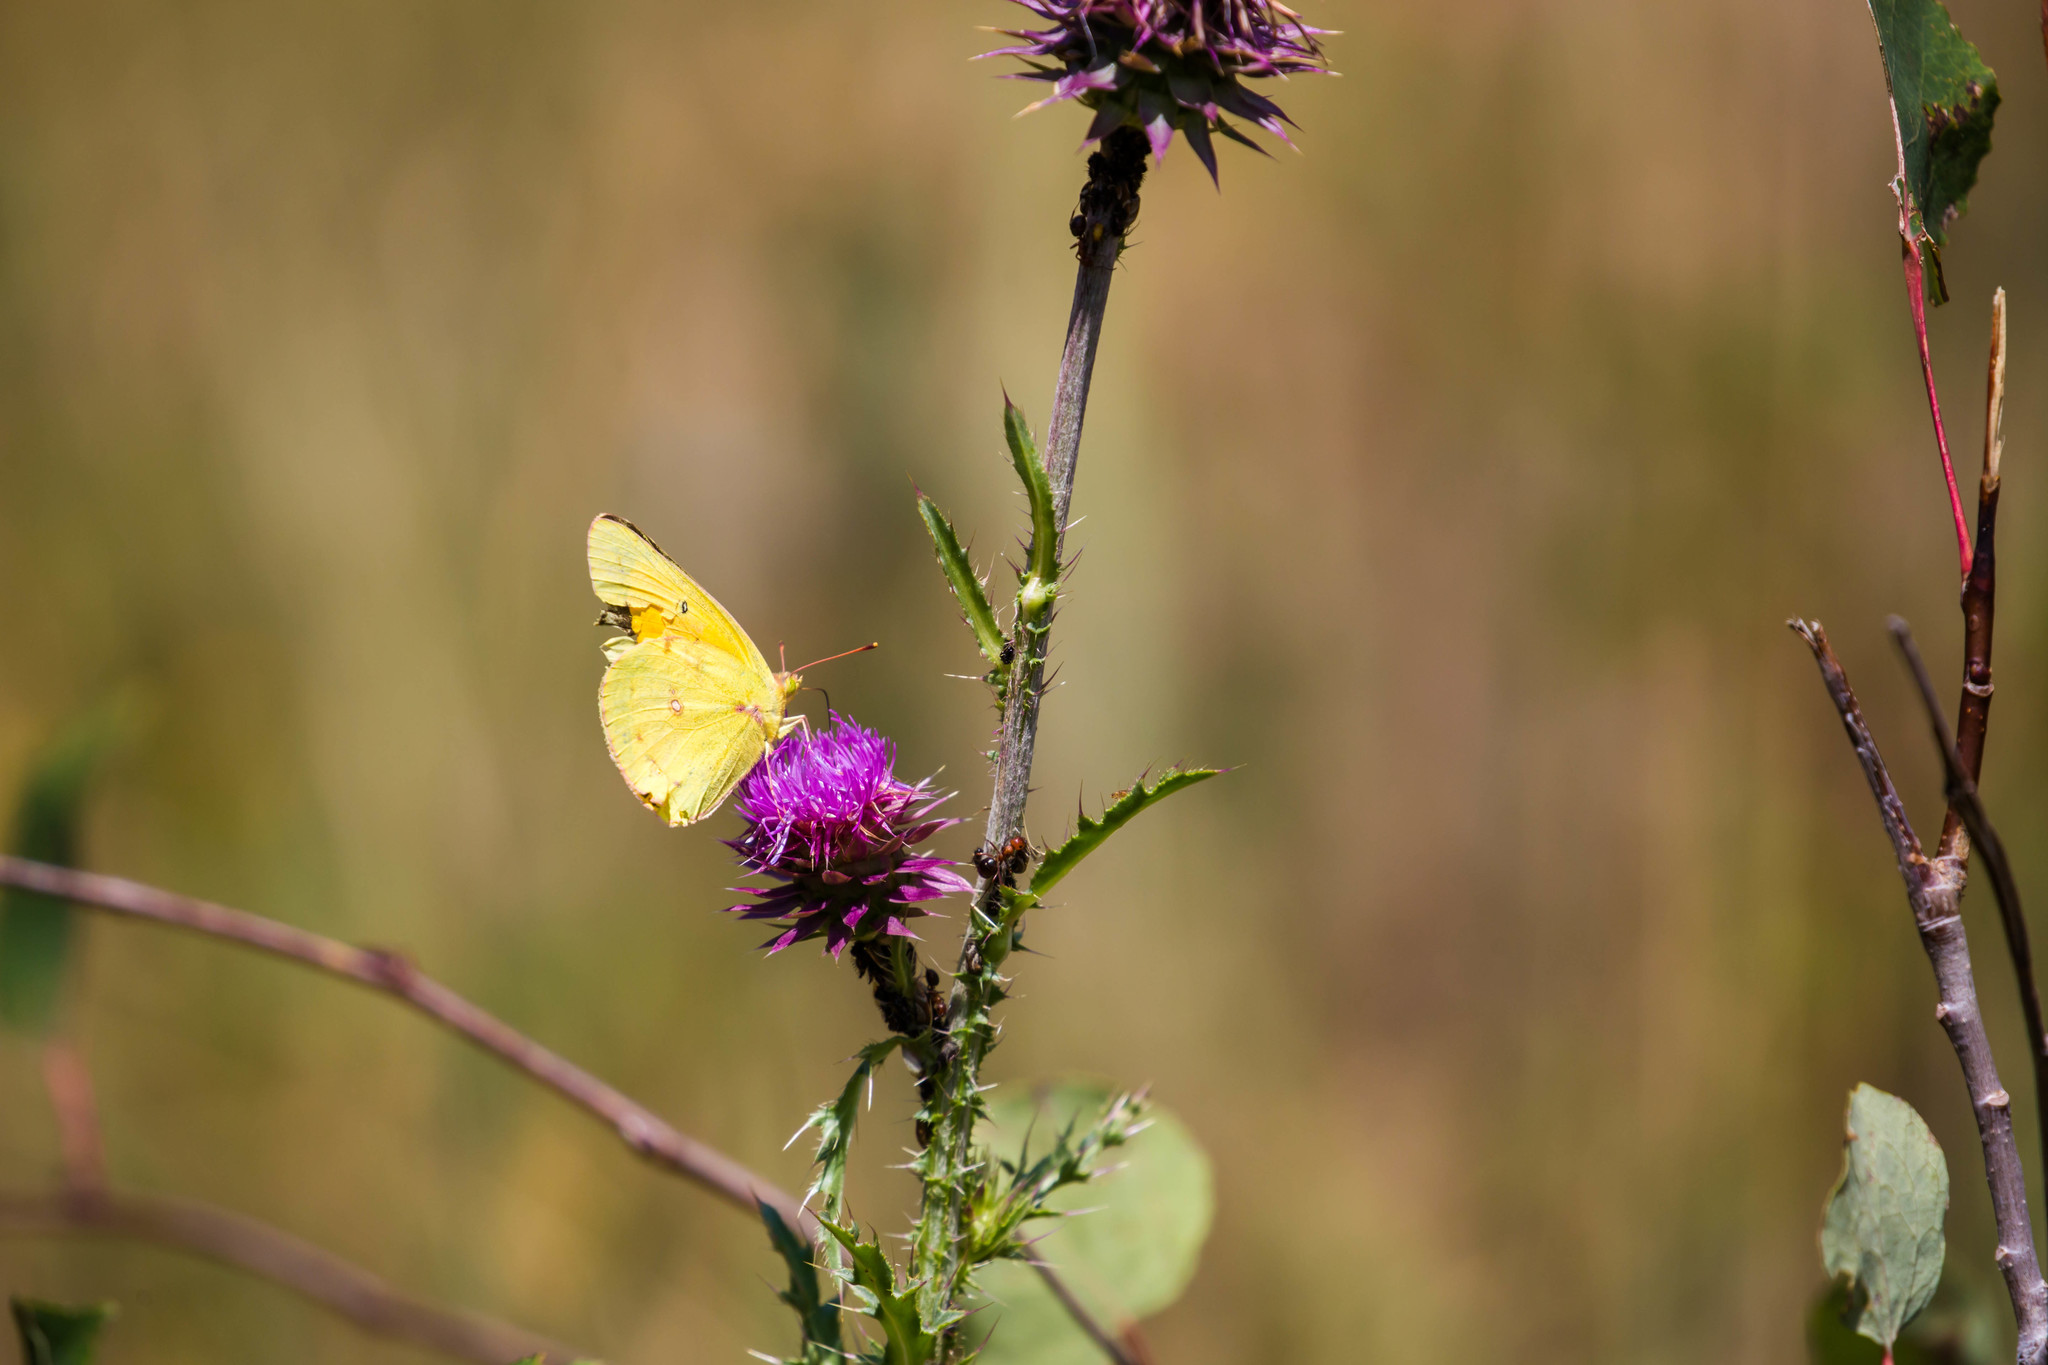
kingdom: Animalia
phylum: Arthropoda
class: Insecta
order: Lepidoptera
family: Pieridae
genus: Colias
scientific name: Colias eurytheme
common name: Alfalfa butterfly
